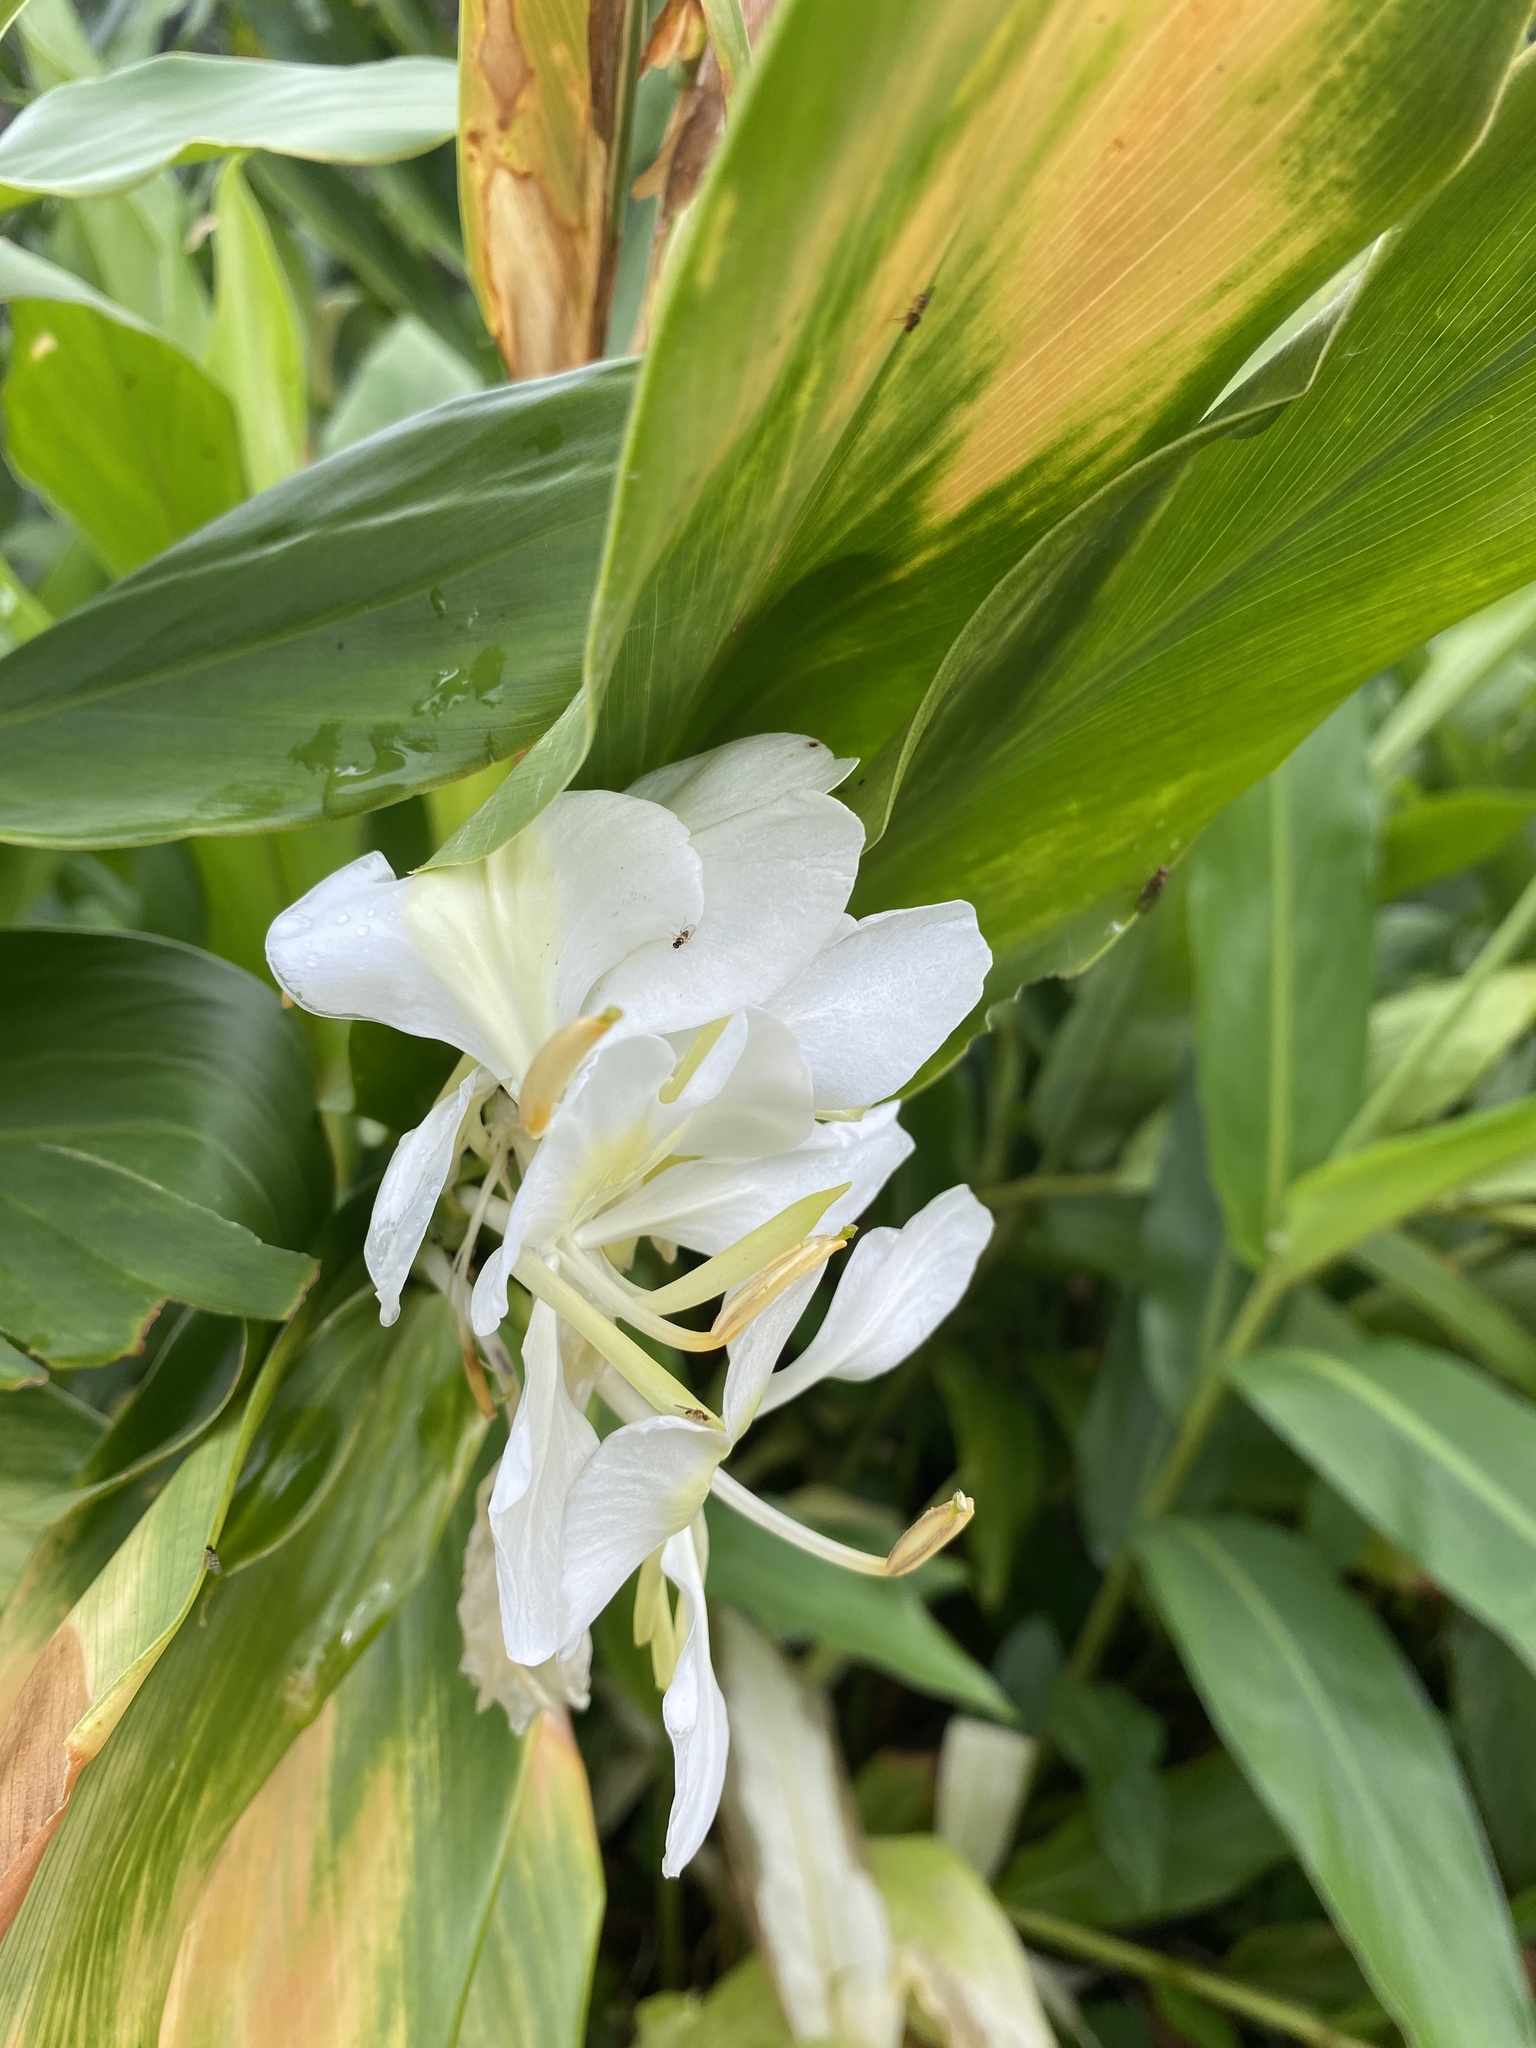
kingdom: Plantae
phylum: Tracheophyta
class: Liliopsida
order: Zingiberales
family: Zingiberaceae
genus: Hedychium
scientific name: Hedychium coronarium
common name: White garland-lily
